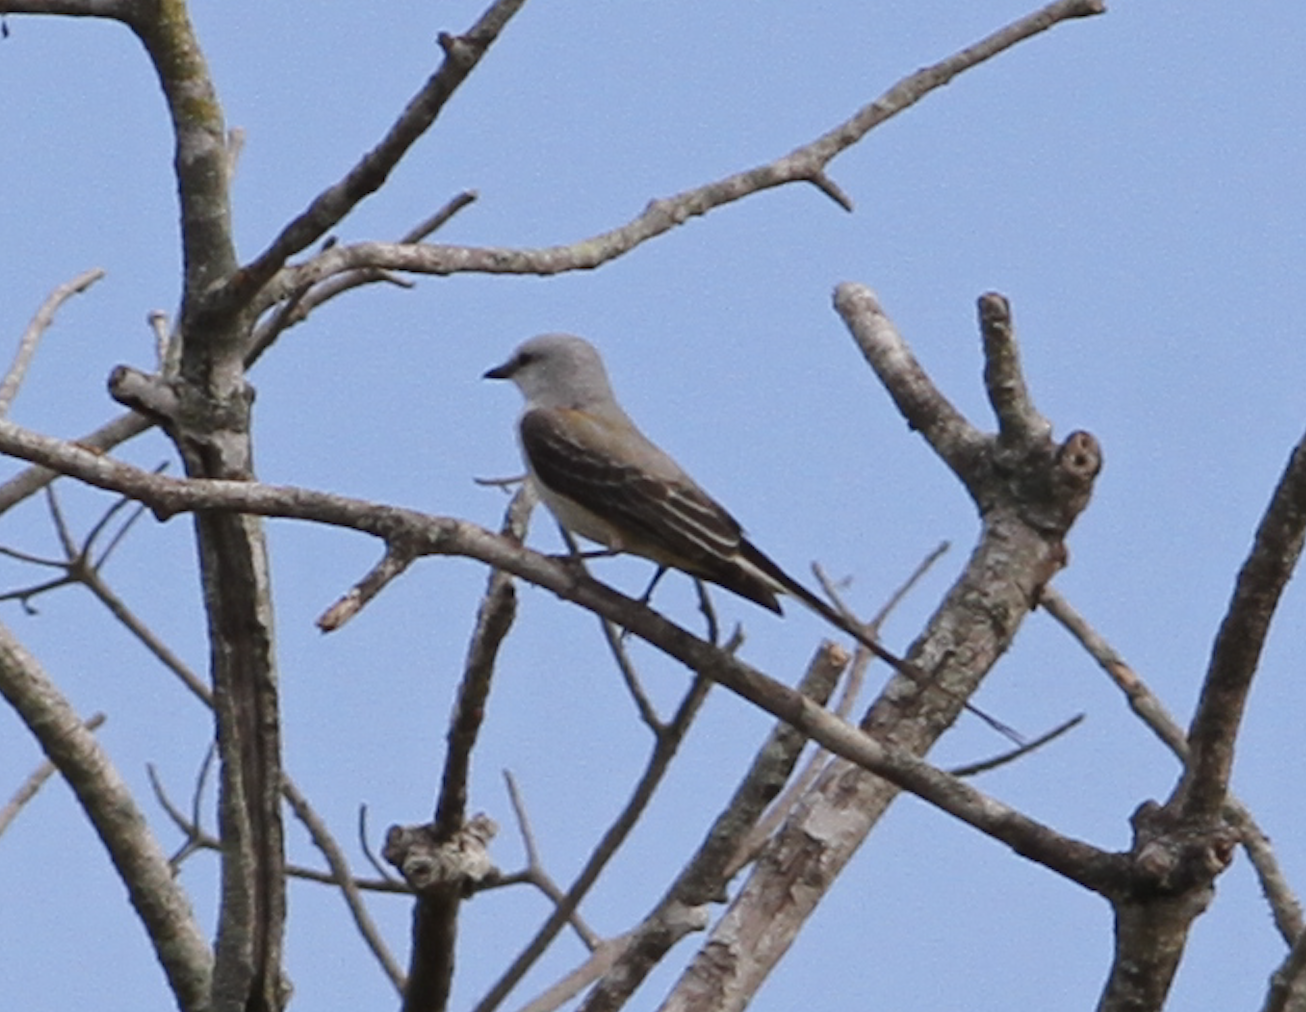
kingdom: Animalia
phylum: Chordata
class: Aves
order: Passeriformes
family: Tyrannidae
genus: Tyrannus
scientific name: Tyrannus forficatus
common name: Scissor-tailed flycatcher
